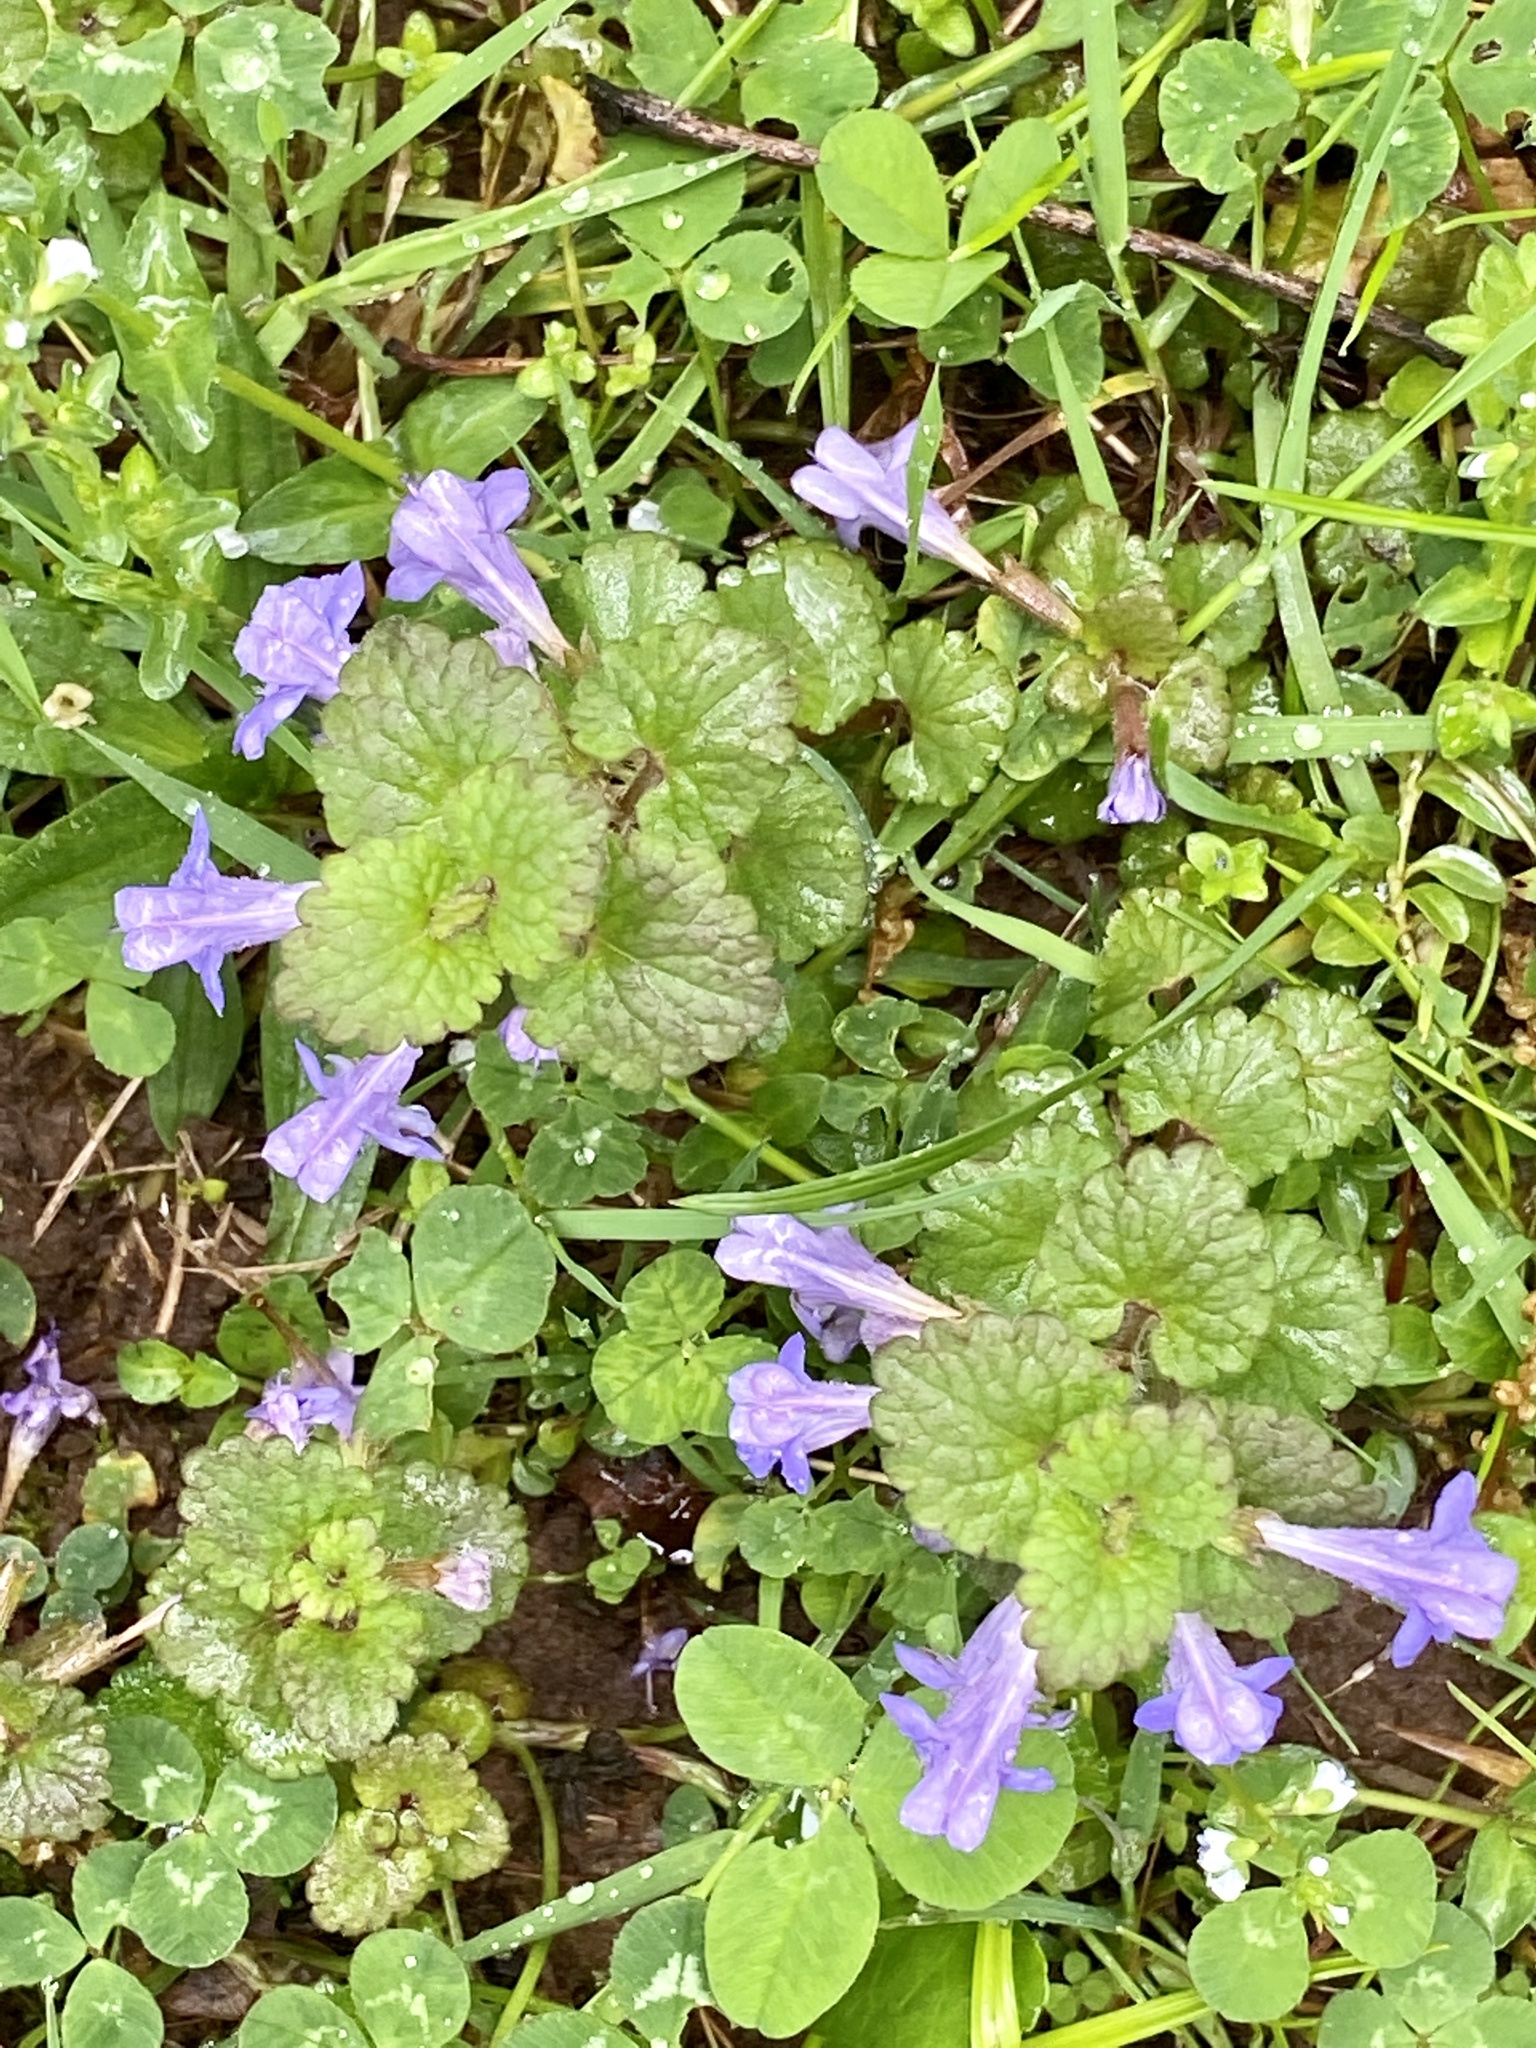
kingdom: Plantae
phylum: Tracheophyta
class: Magnoliopsida
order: Lamiales
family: Lamiaceae
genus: Glechoma
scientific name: Glechoma hederacea
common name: Ground ivy
